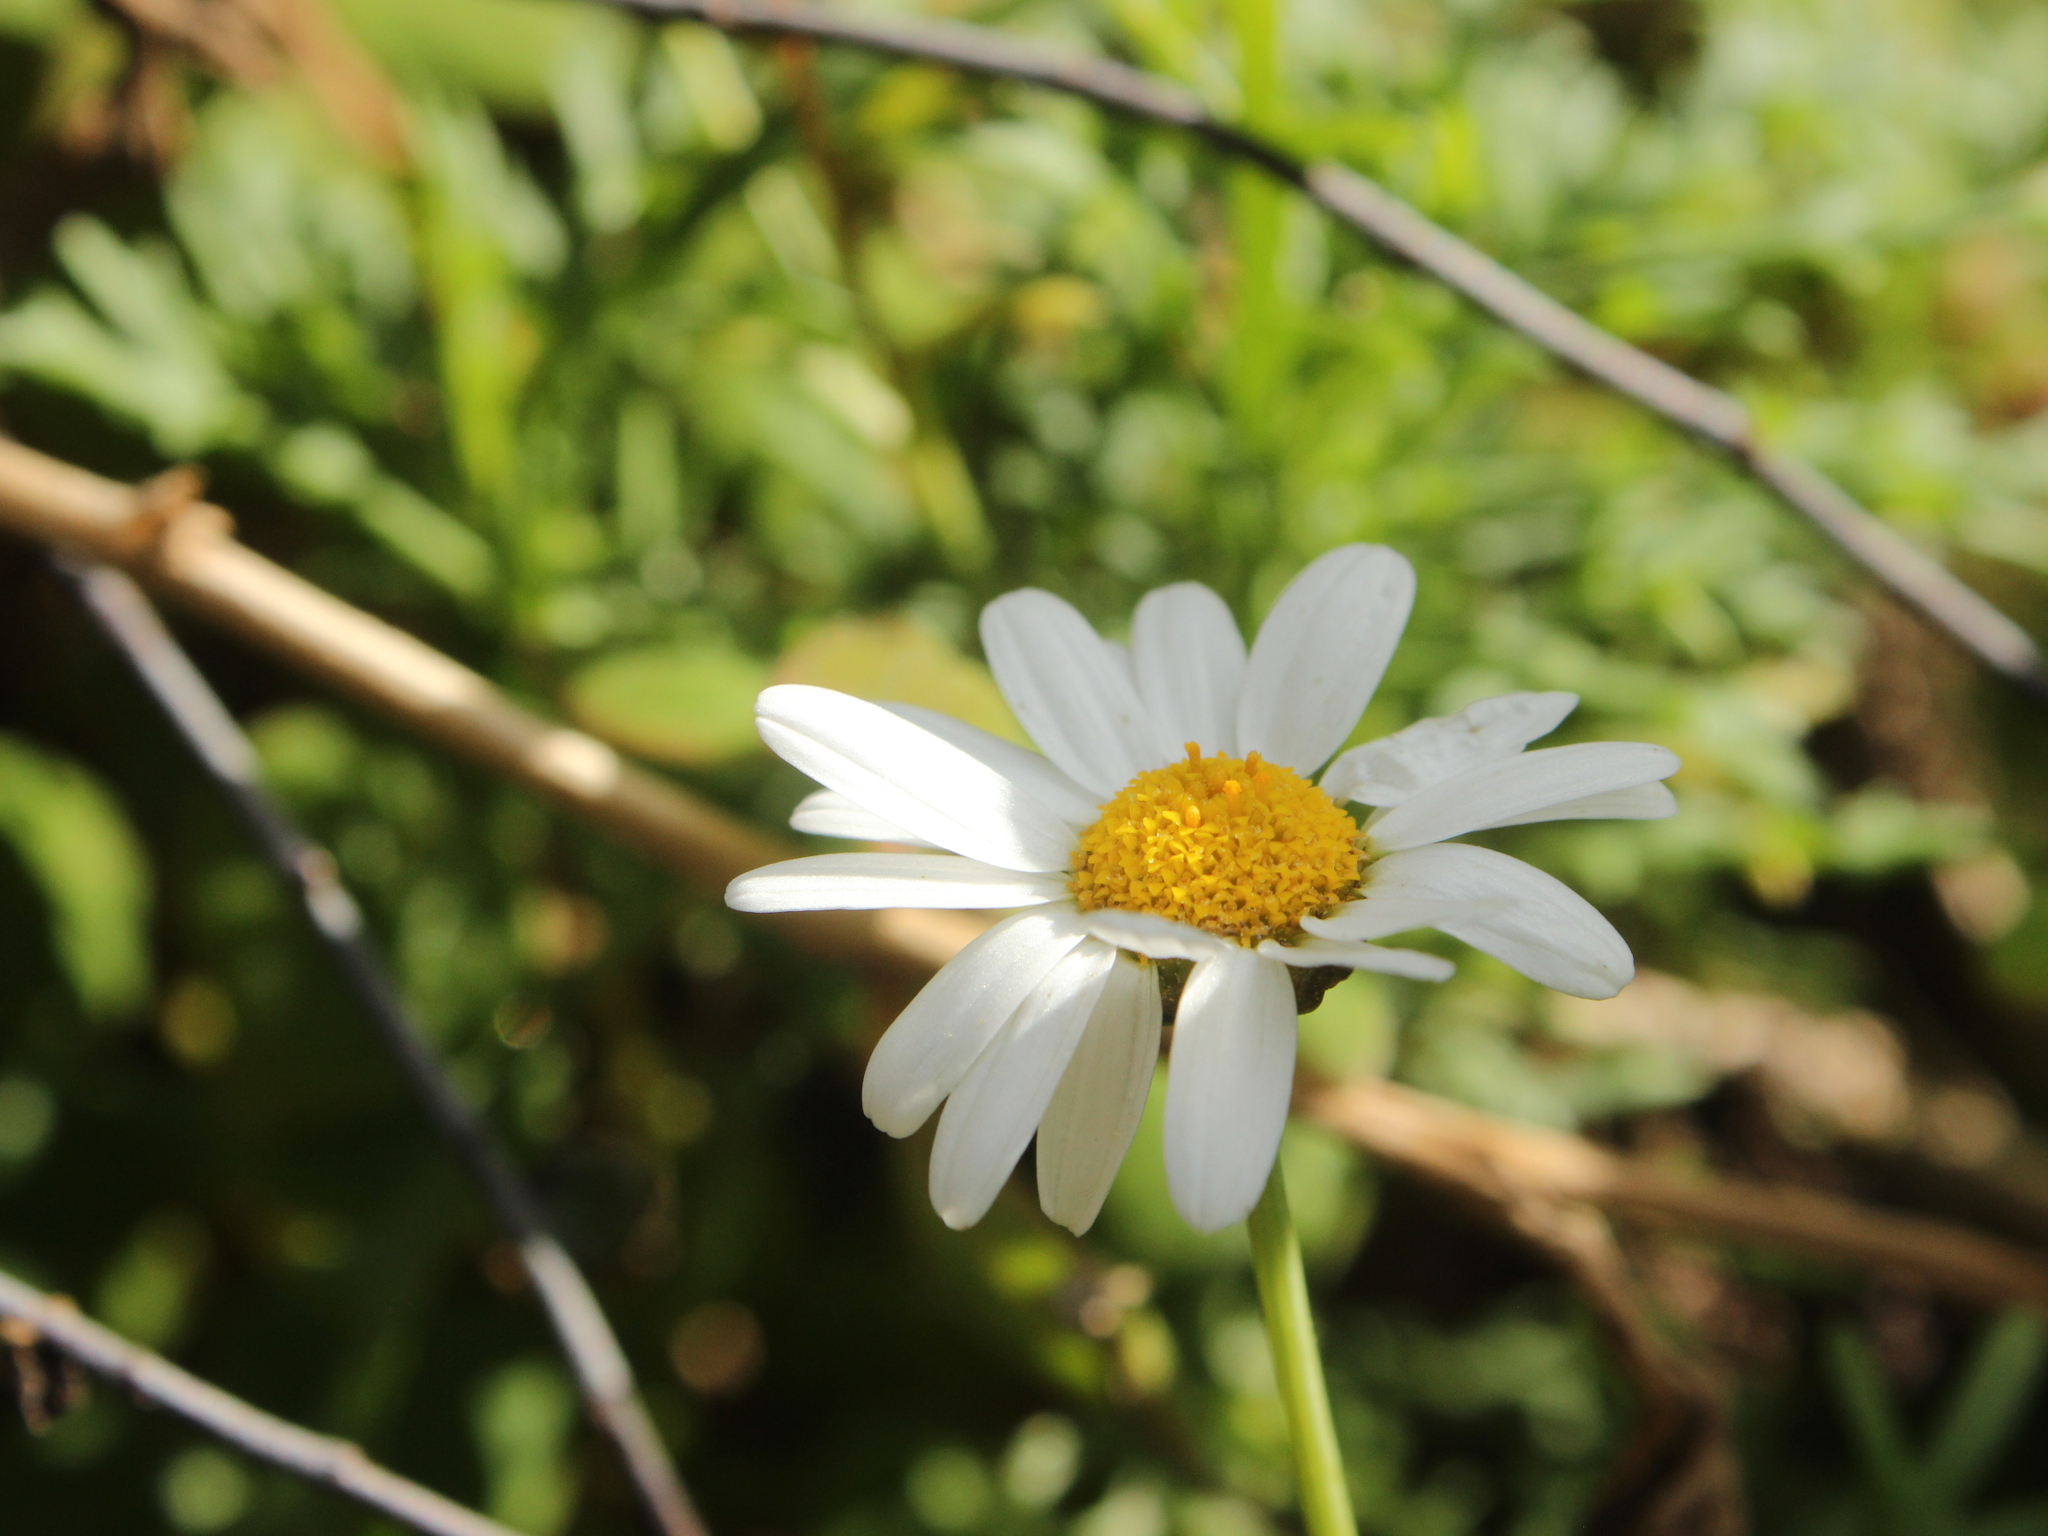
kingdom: Plantae
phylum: Tracheophyta
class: Magnoliopsida
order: Asterales
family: Asteraceae
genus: Argyranthemum
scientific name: Argyranthemum frutescens
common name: Paris daisy
